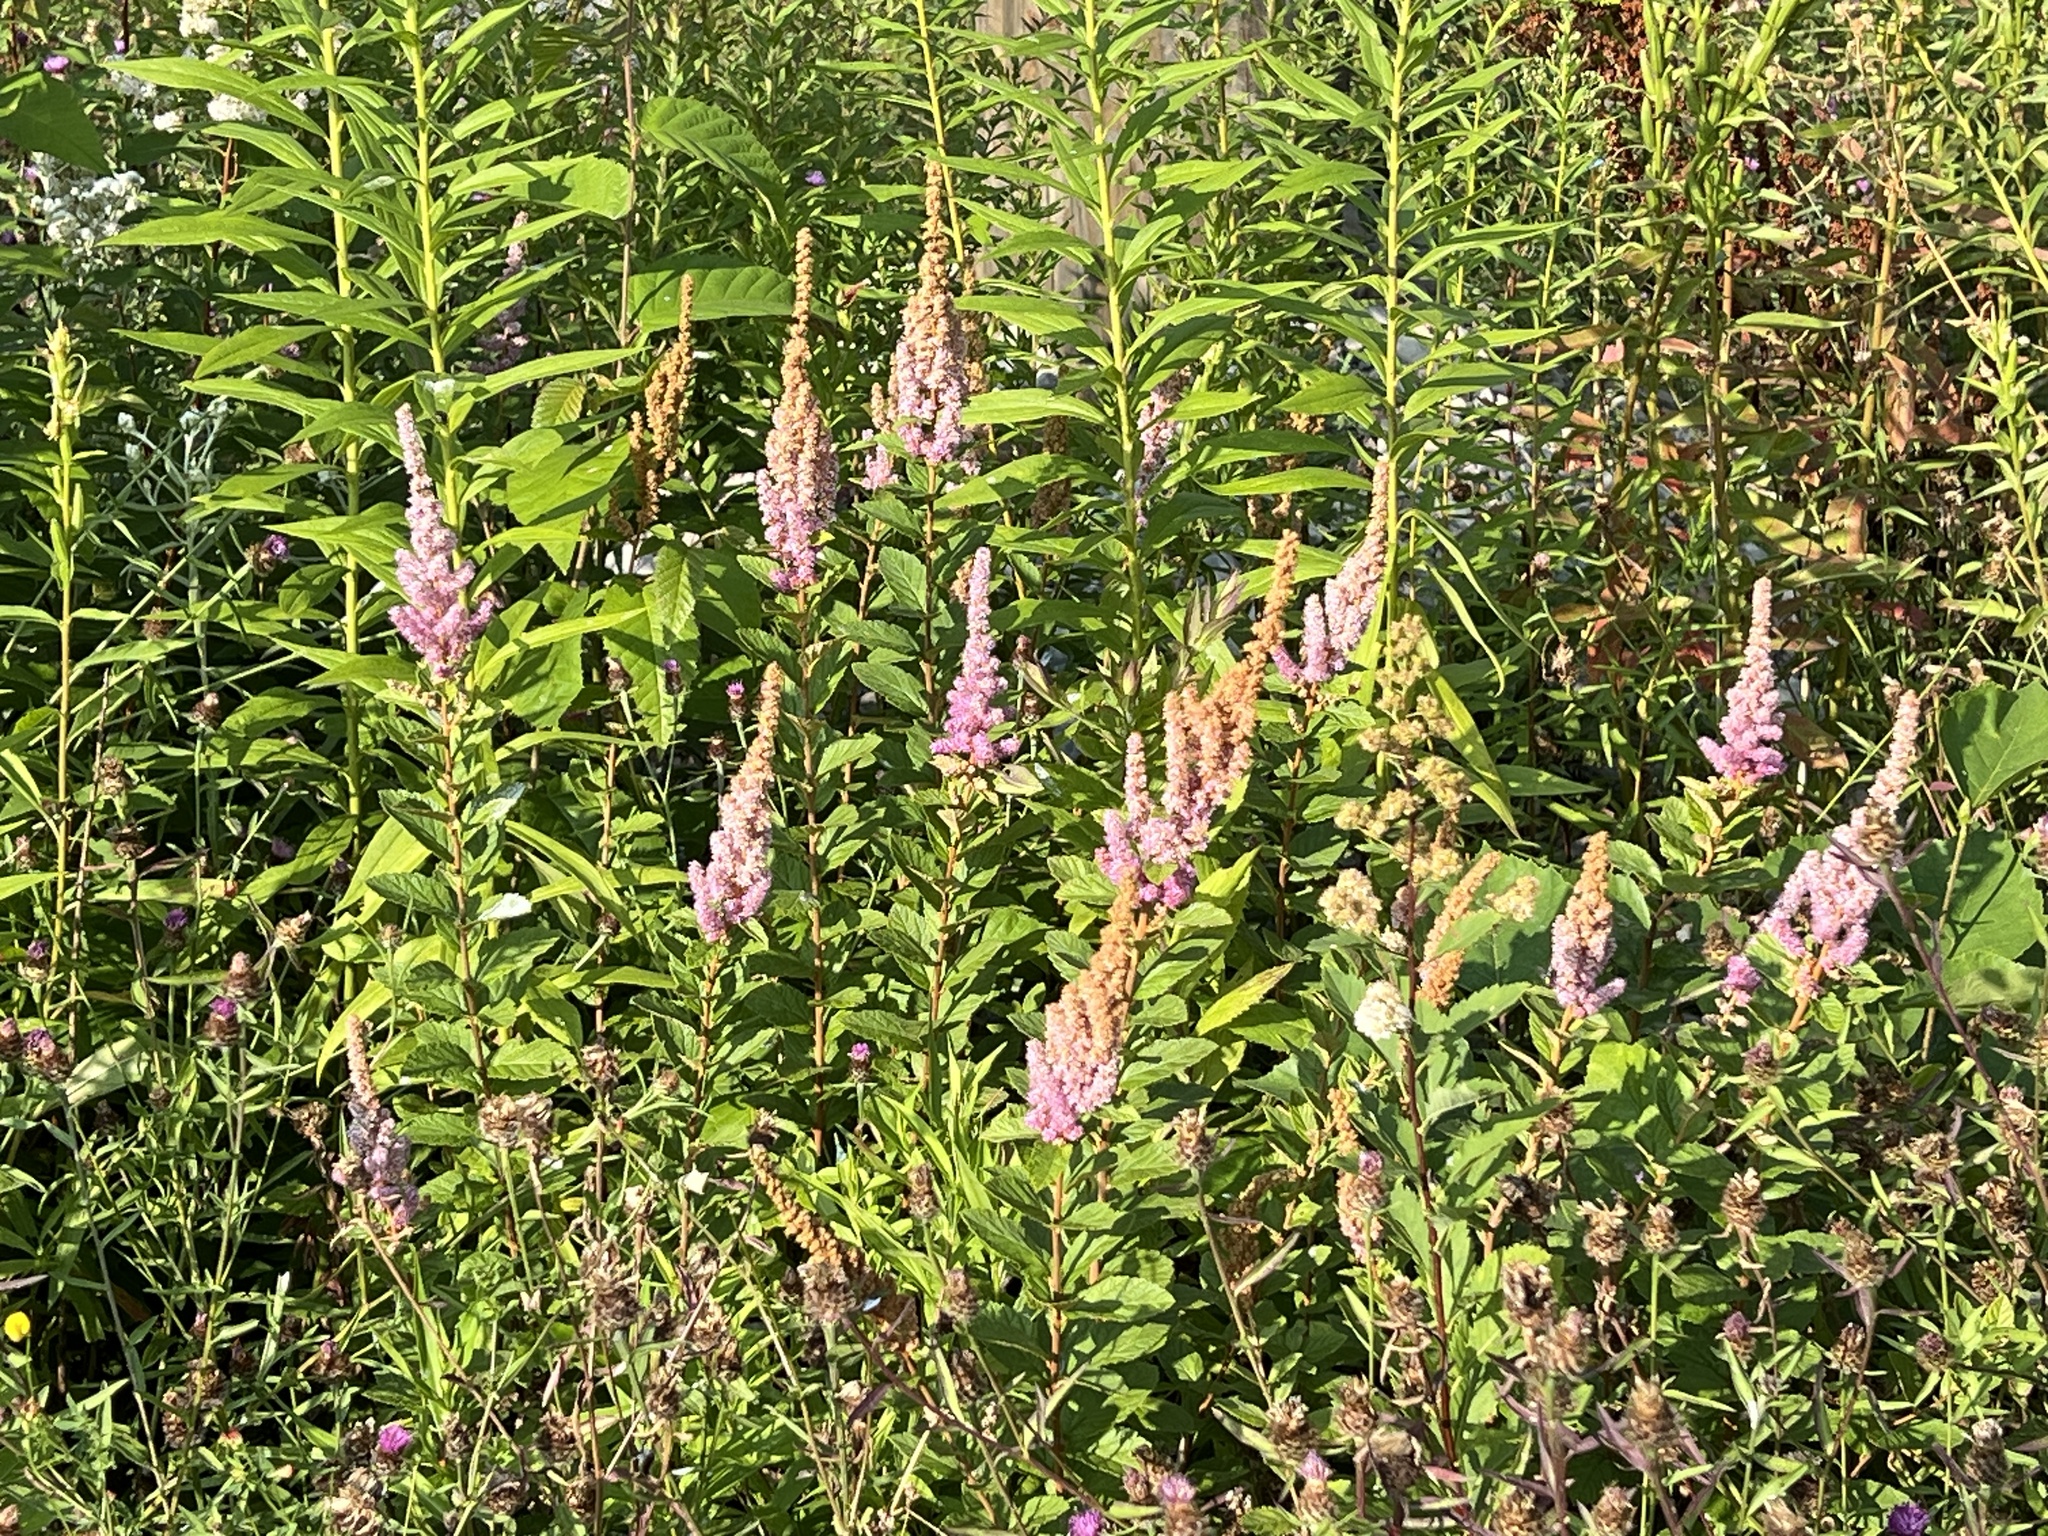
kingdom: Plantae
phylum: Tracheophyta
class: Magnoliopsida
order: Rosales
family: Rosaceae
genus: Spiraea
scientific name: Spiraea tomentosa
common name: Hardhack
